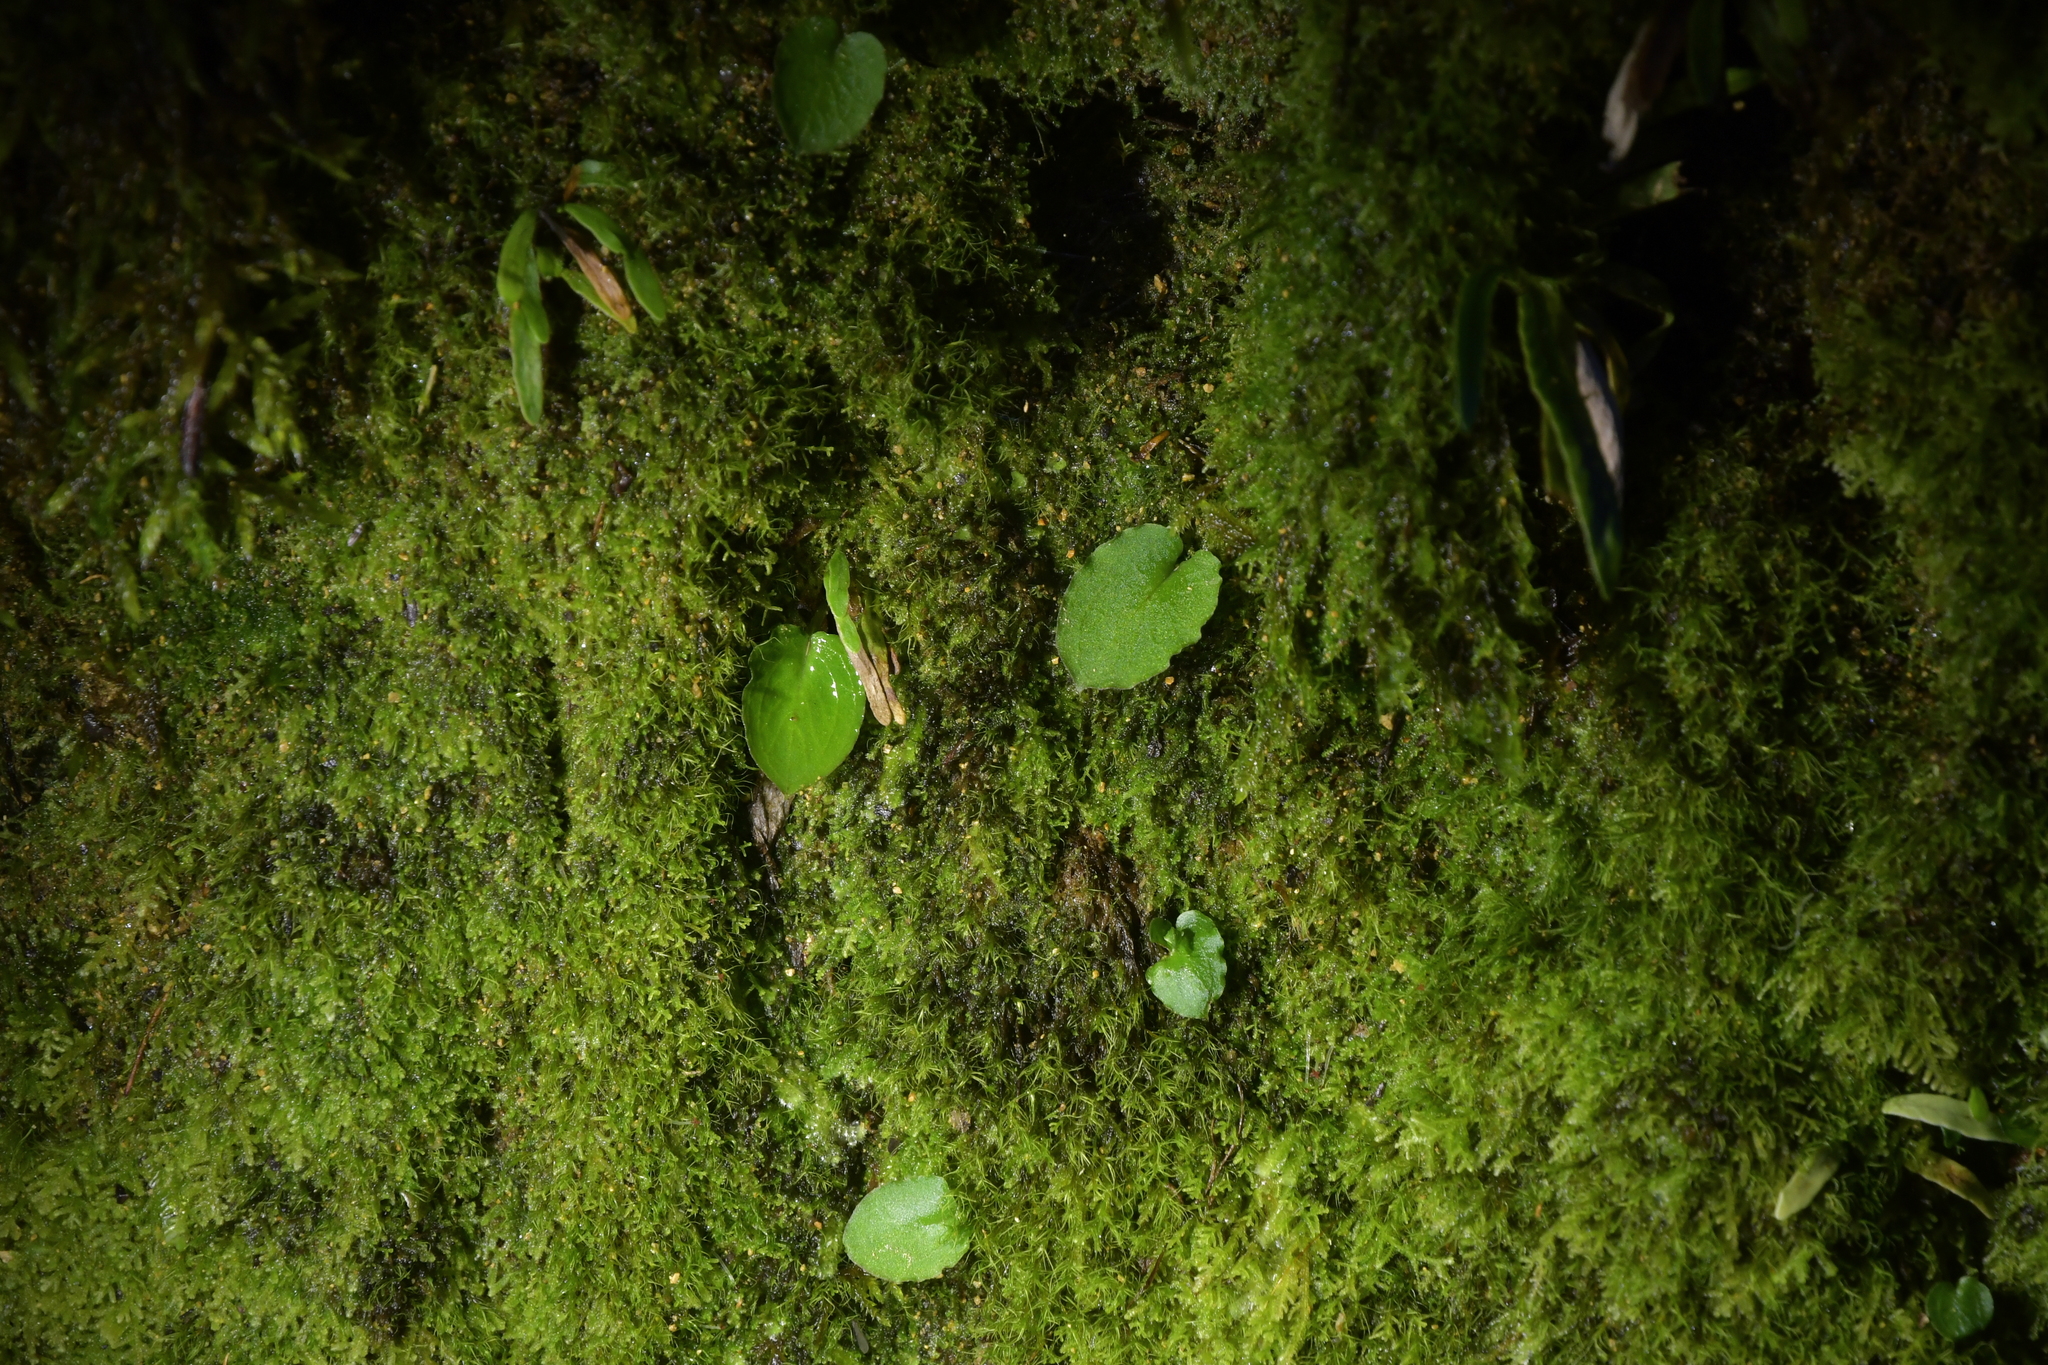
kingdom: Plantae
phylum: Tracheophyta
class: Liliopsida
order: Asparagales
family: Orchidaceae
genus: Corybas
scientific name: Corybas oblongus
